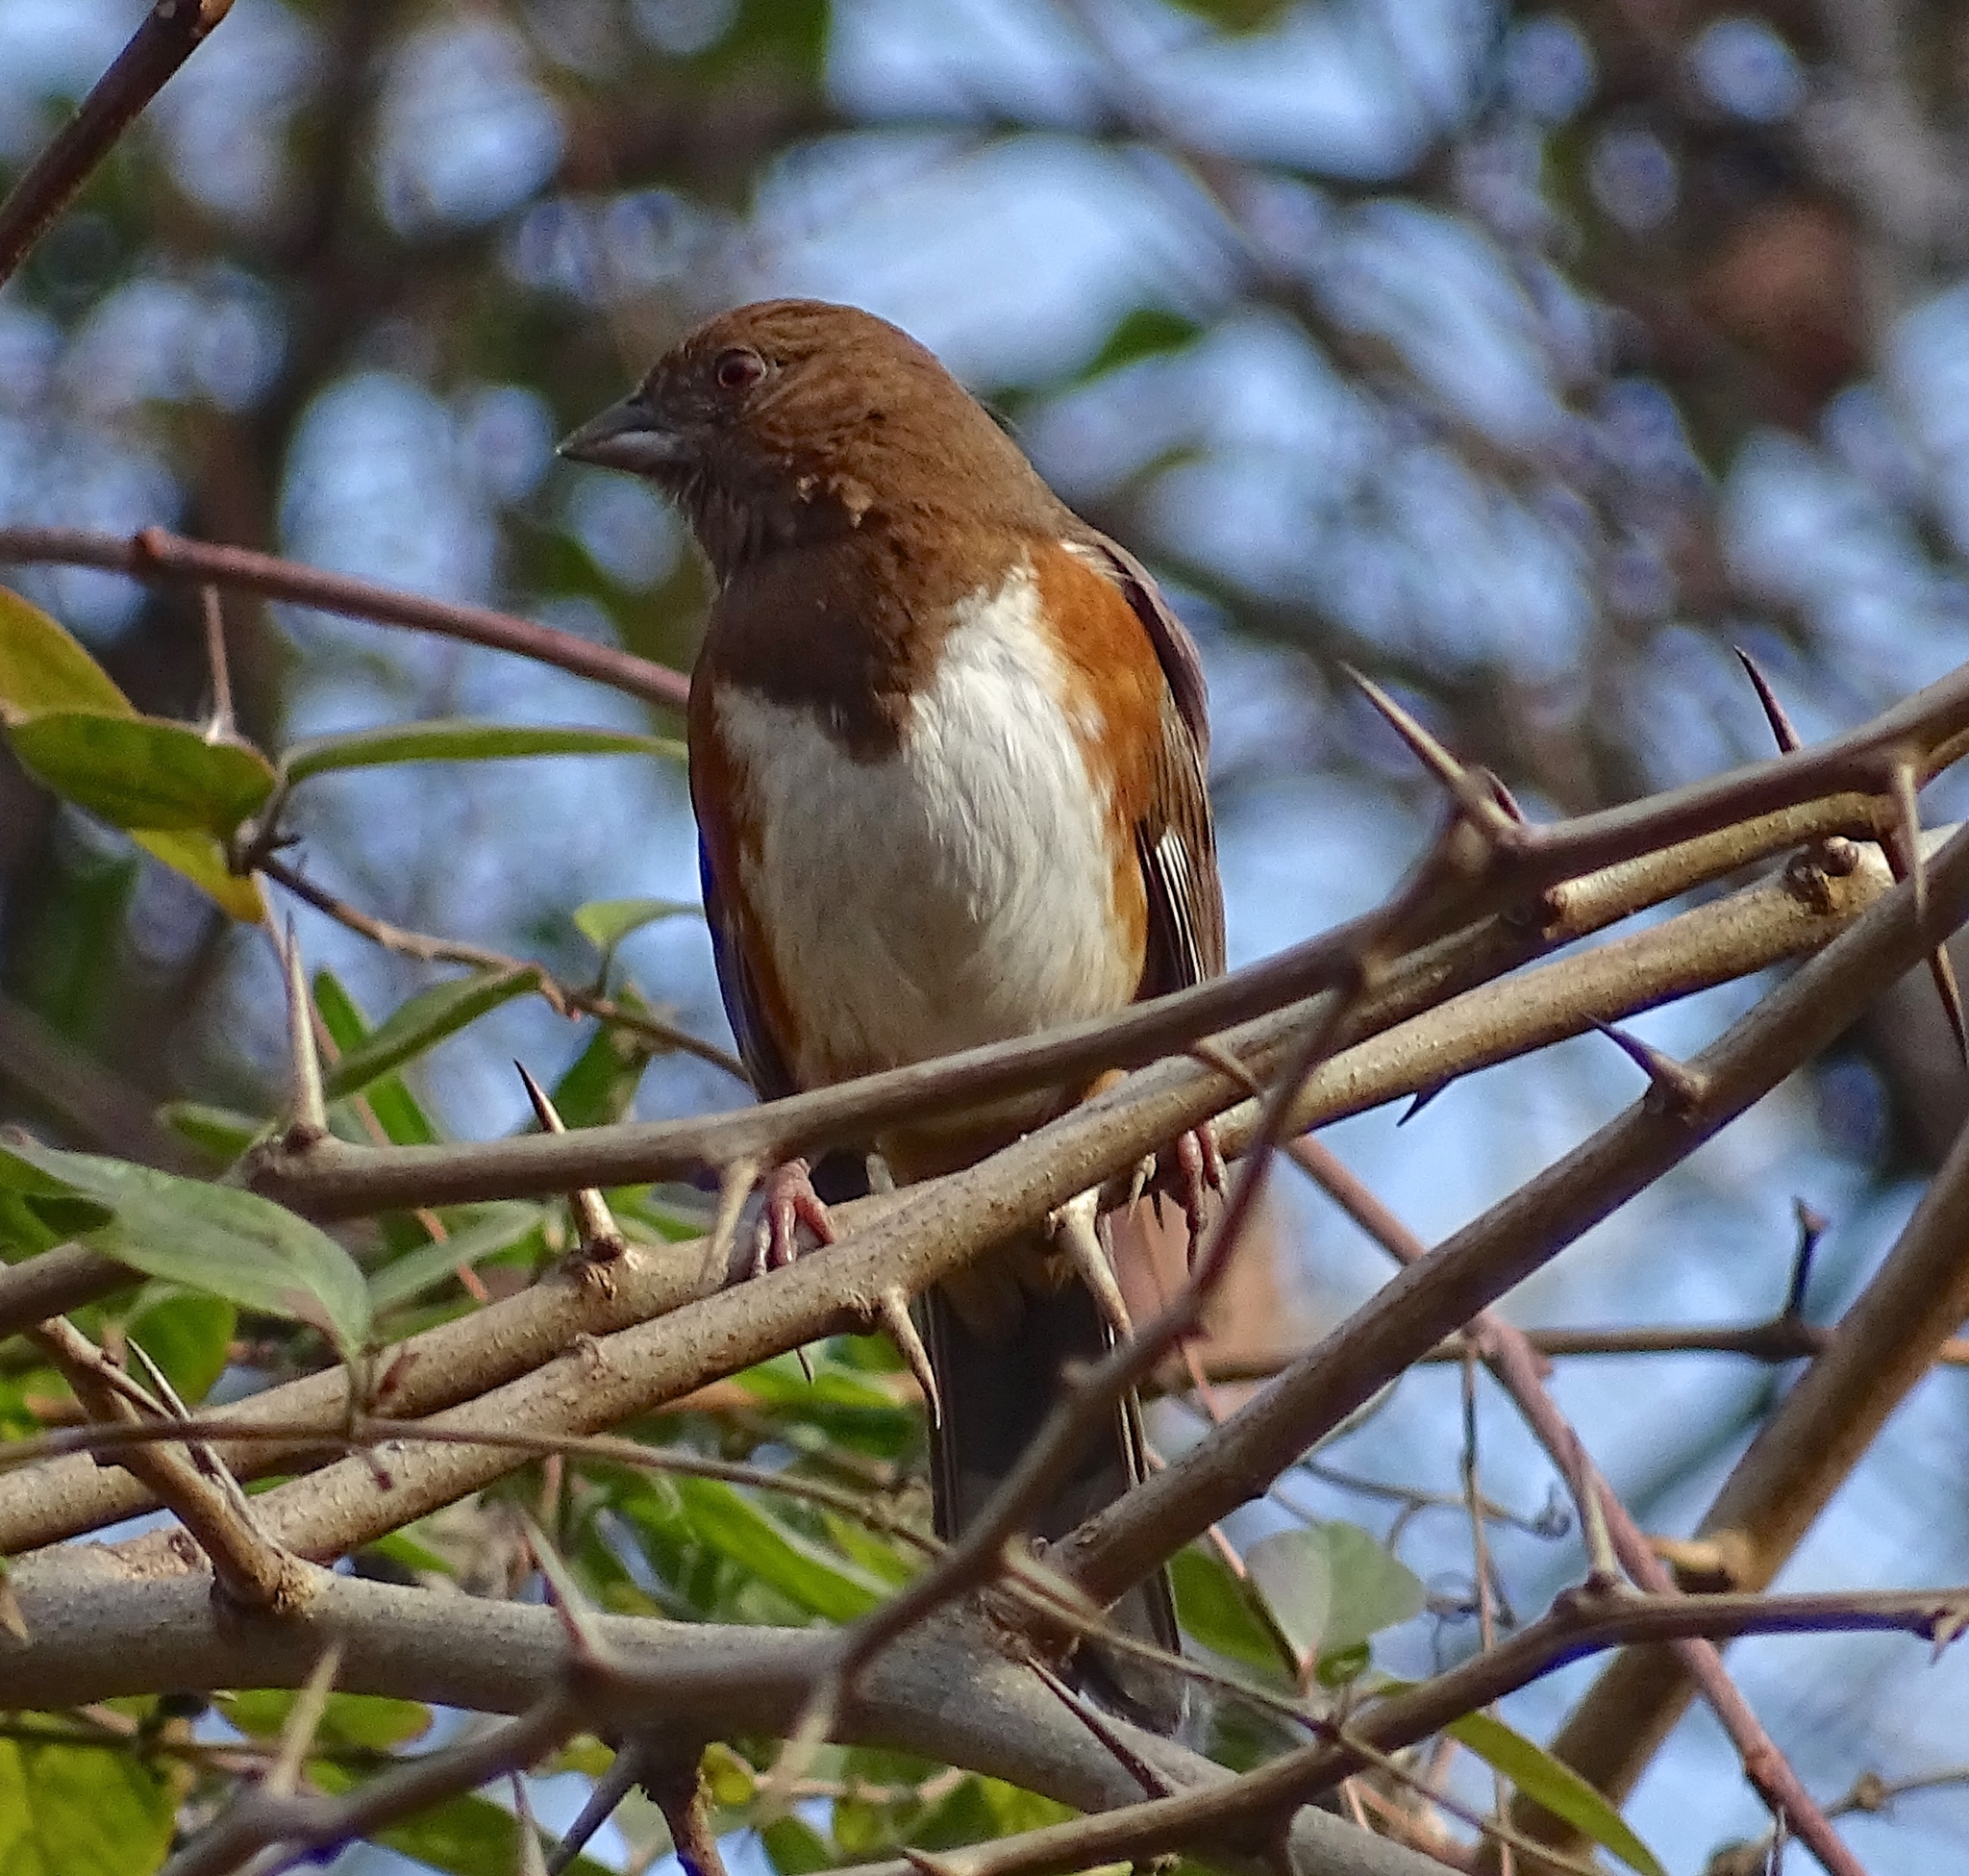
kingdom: Animalia
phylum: Chordata
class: Aves
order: Passeriformes
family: Passerellidae
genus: Pipilo
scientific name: Pipilo erythrophthalmus
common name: Eastern towhee
